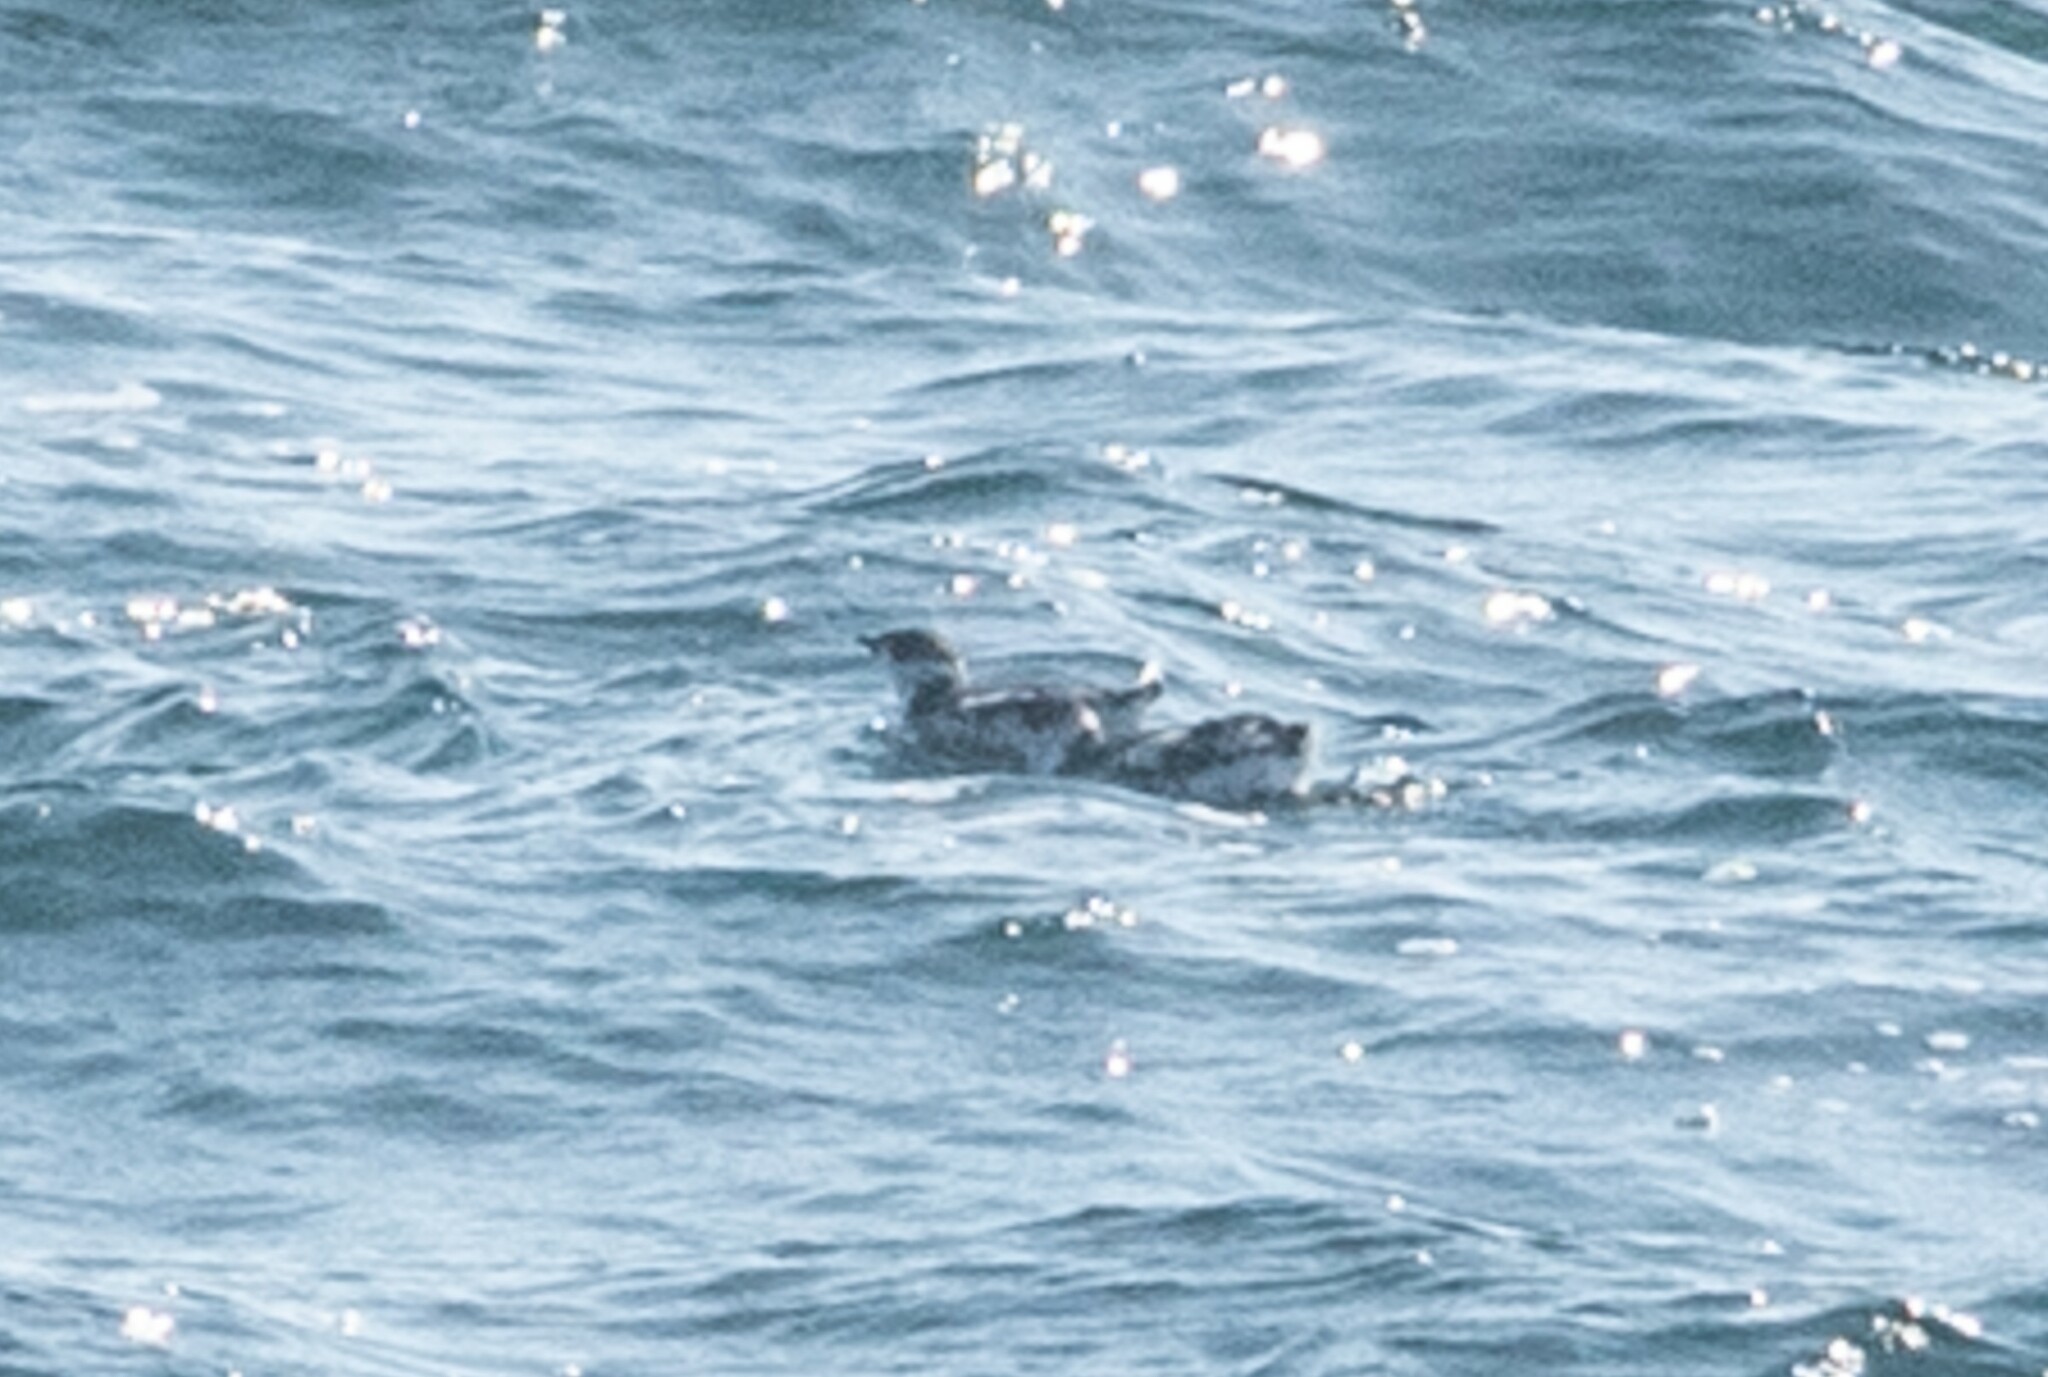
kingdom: Animalia
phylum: Chordata
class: Aves
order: Charadriiformes
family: Alcidae
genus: Brachyramphus
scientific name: Brachyramphus marmoratus
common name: Marbled murrelet
